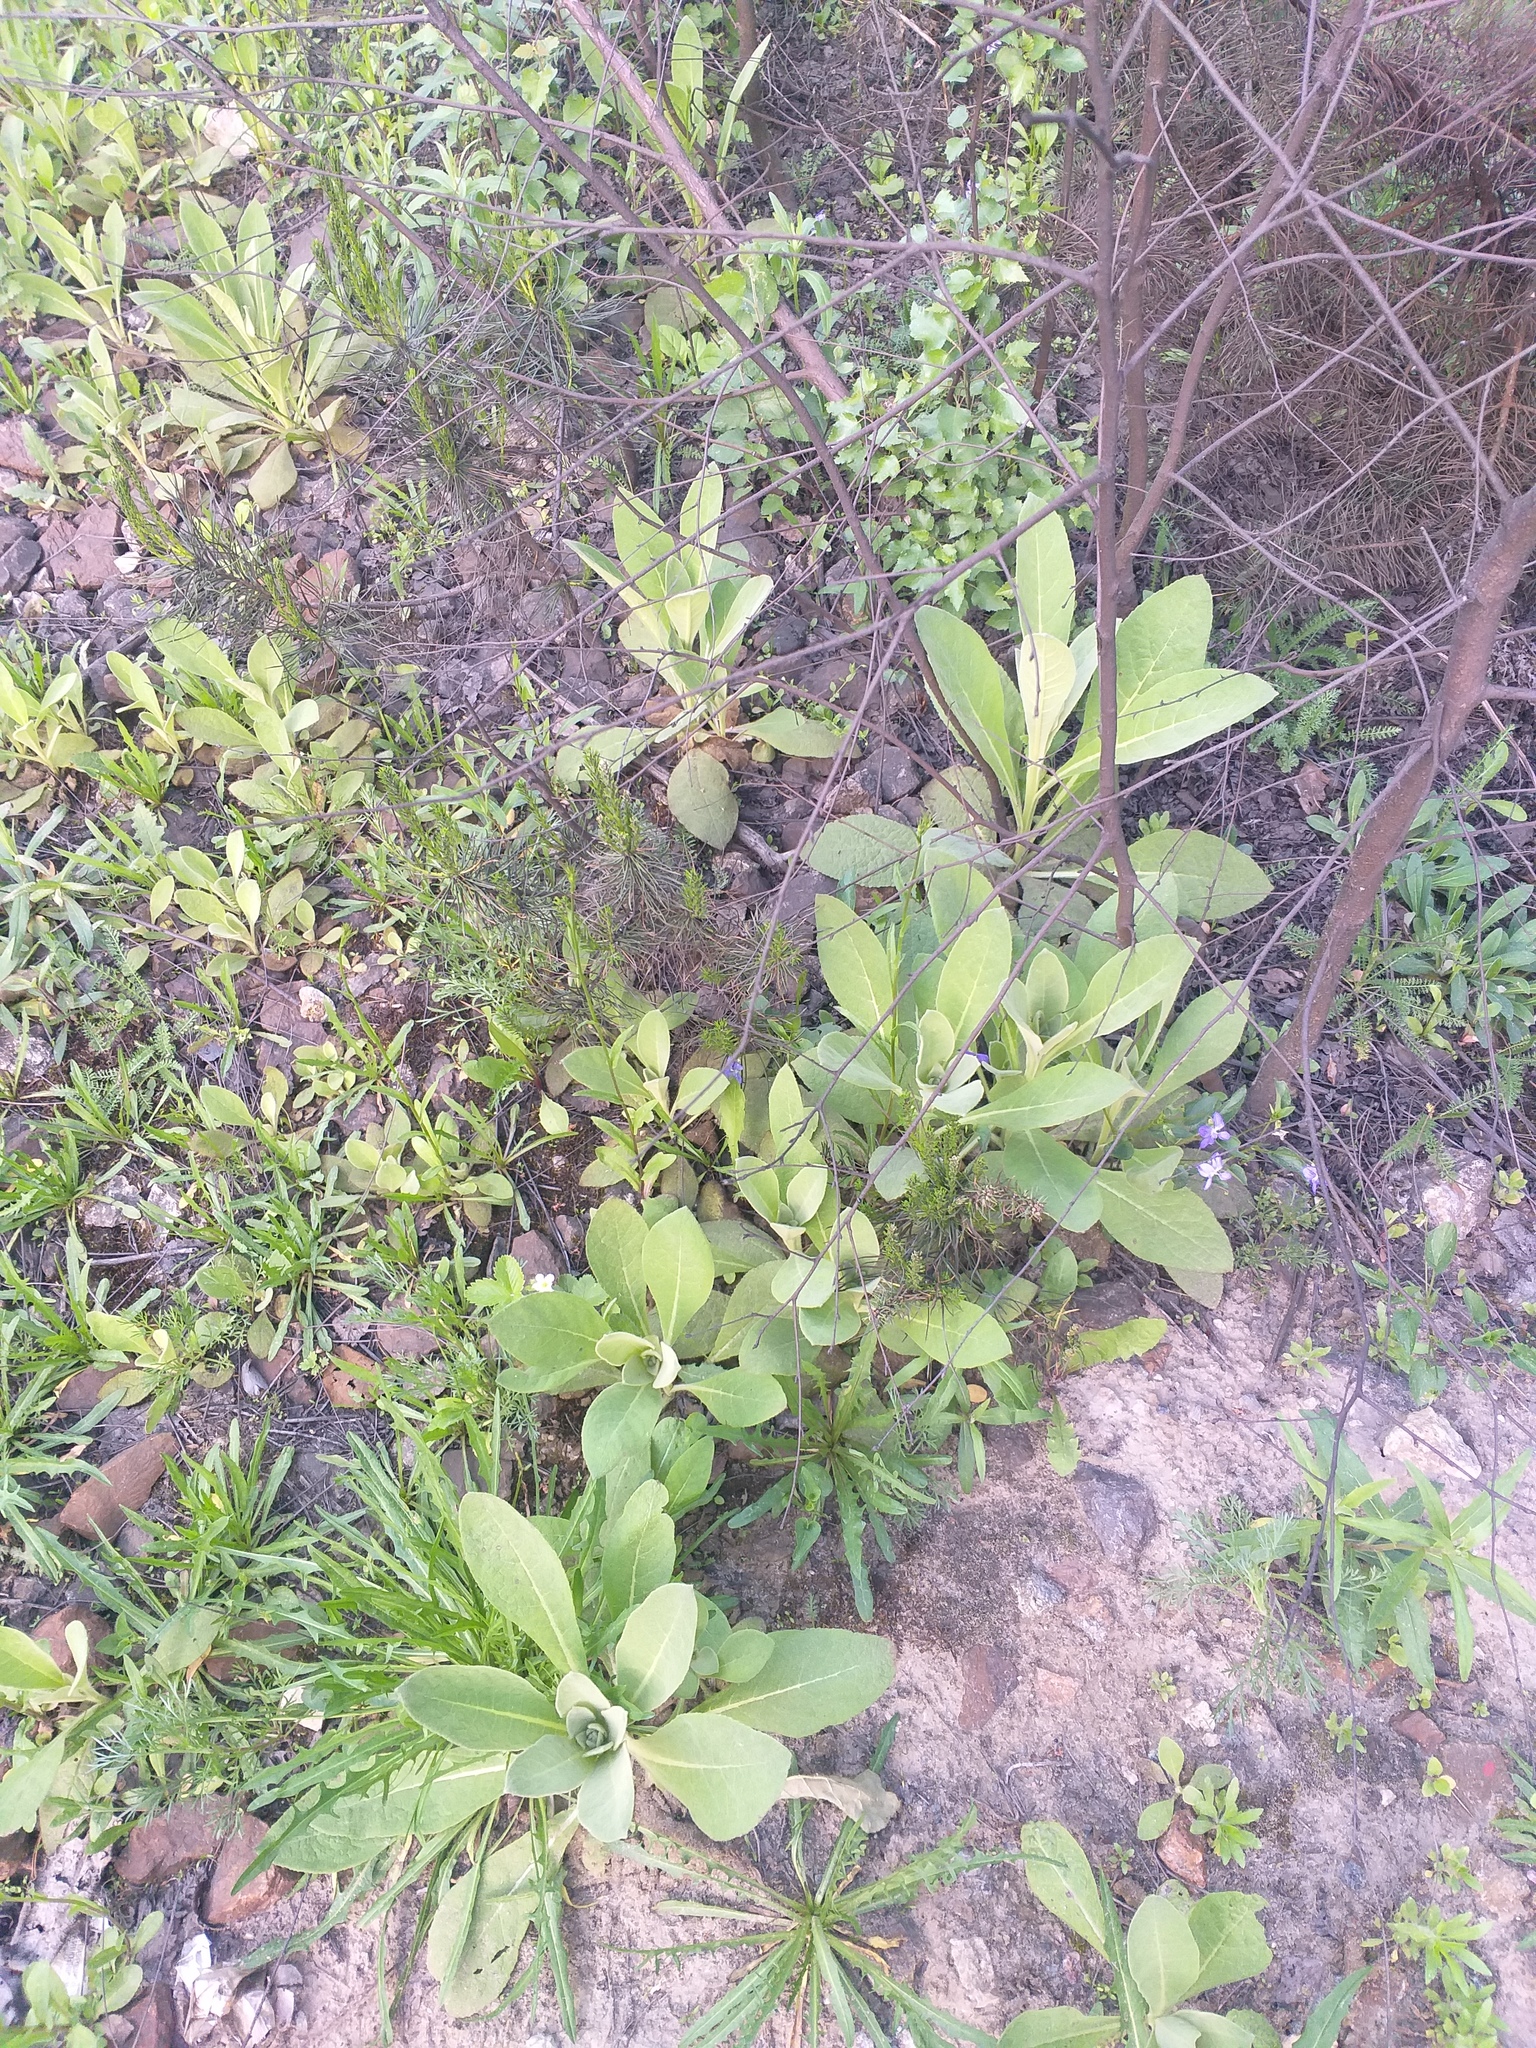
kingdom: Plantae
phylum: Tracheophyta
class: Magnoliopsida
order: Lamiales
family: Scrophulariaceae
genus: Verbascum
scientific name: Verbascum thapsus
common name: Common mullein
